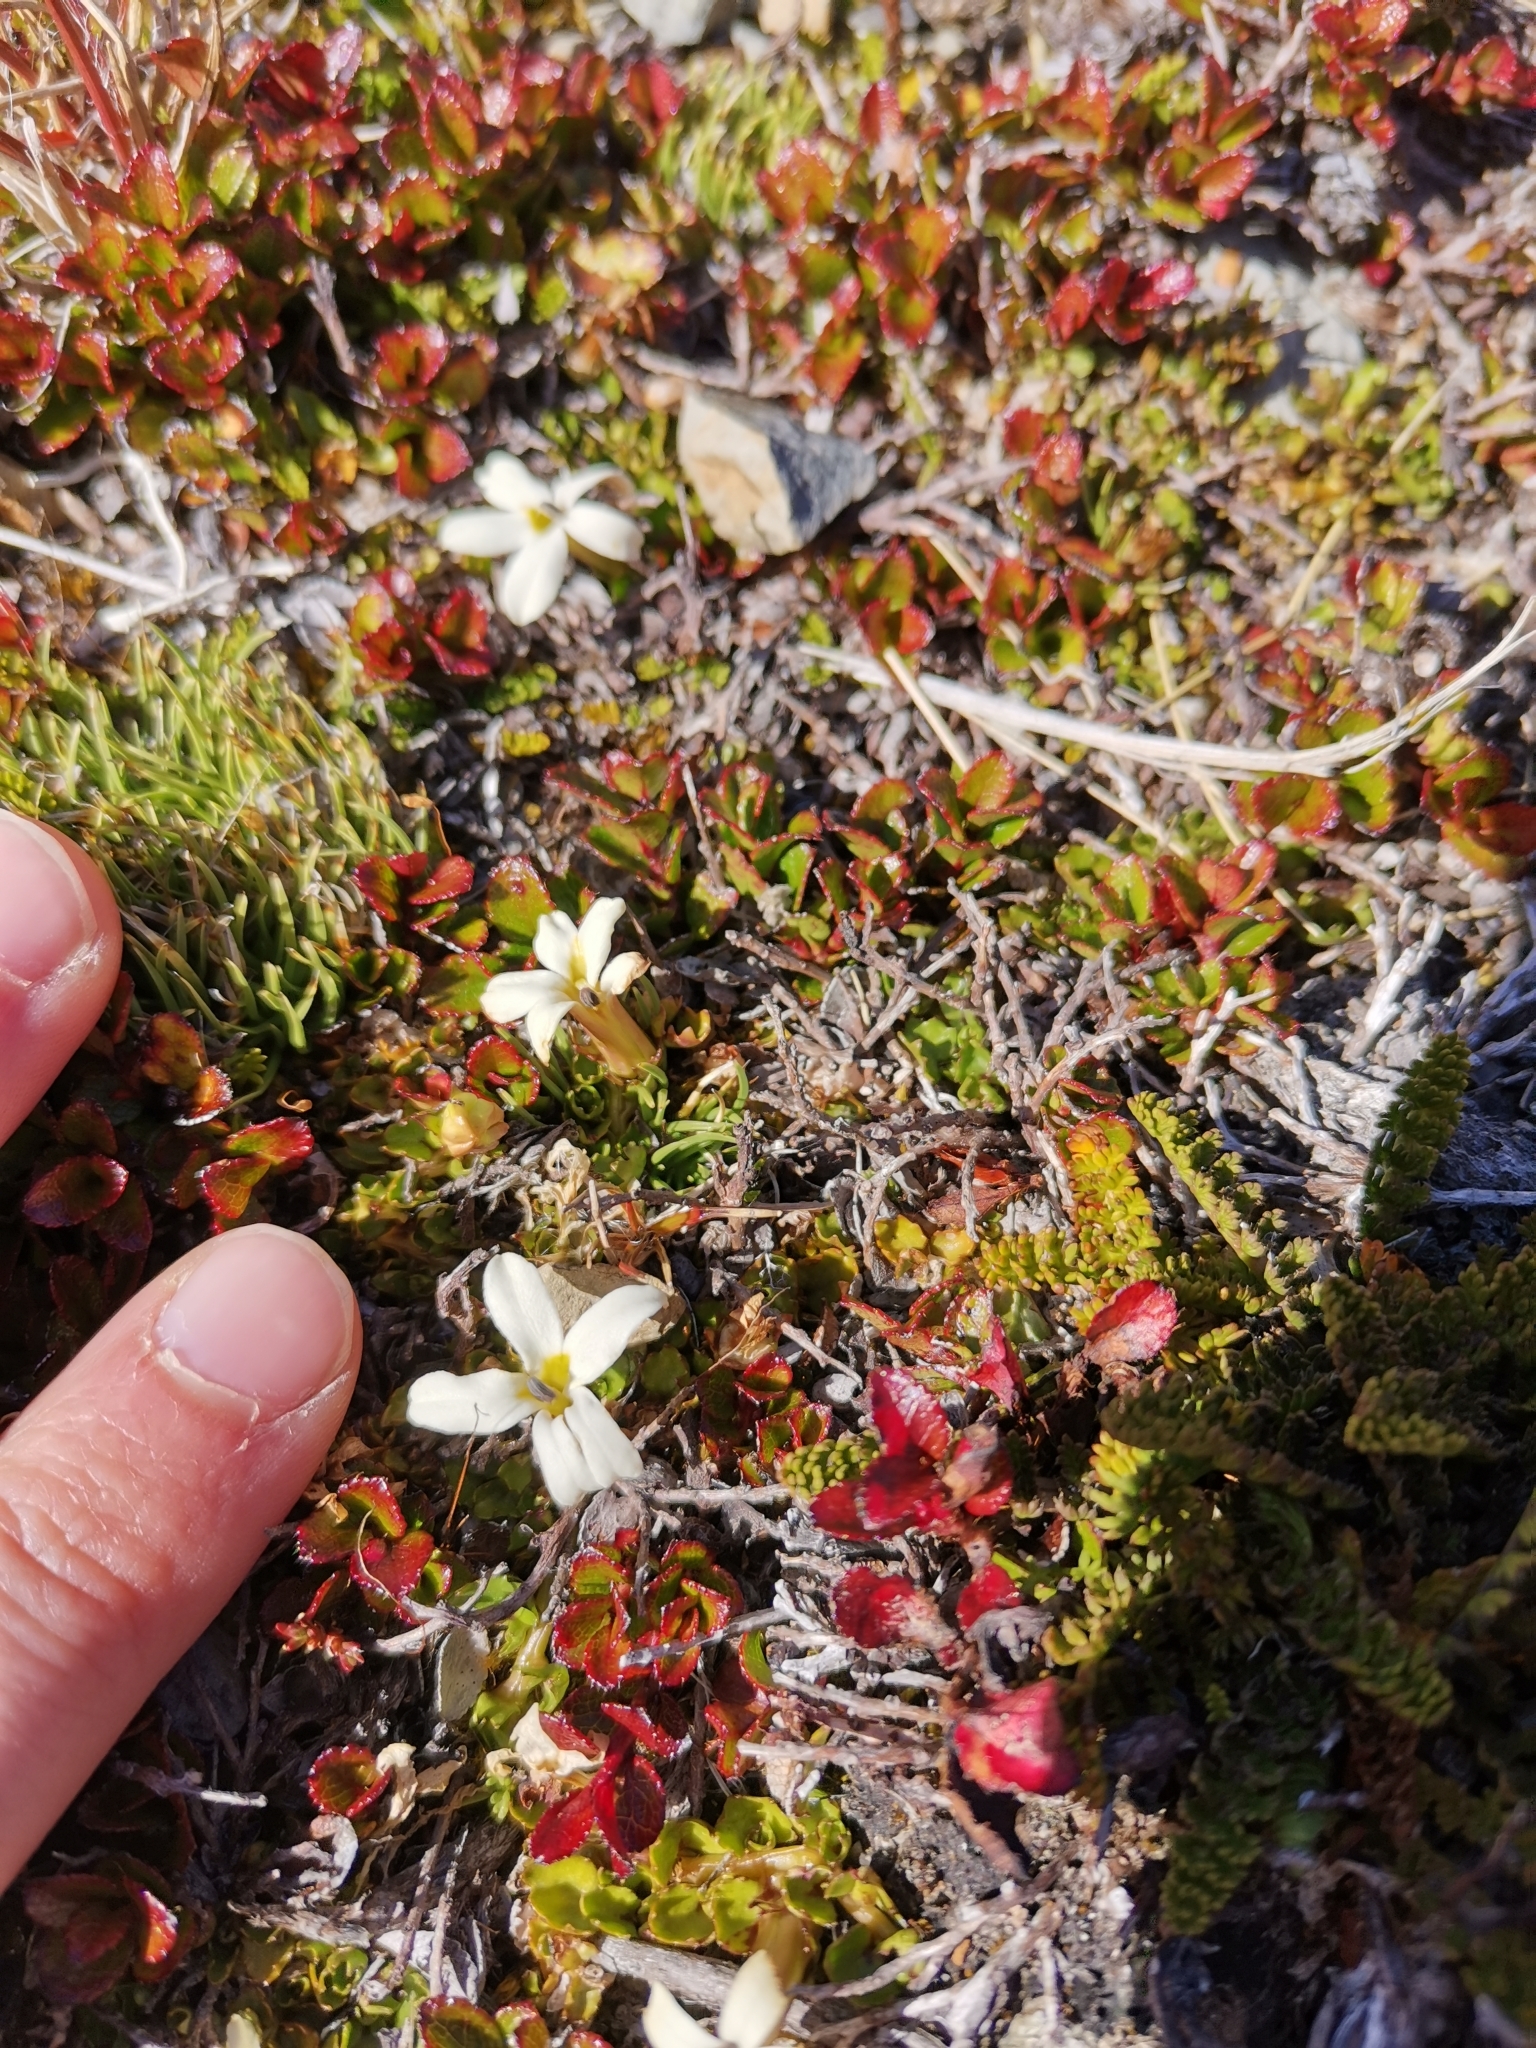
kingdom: Plantae
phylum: Tracheophyta
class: Magnoliopsida
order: Asterales
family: Campanulaceae
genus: Lobelia
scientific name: Lobelia macrodon
